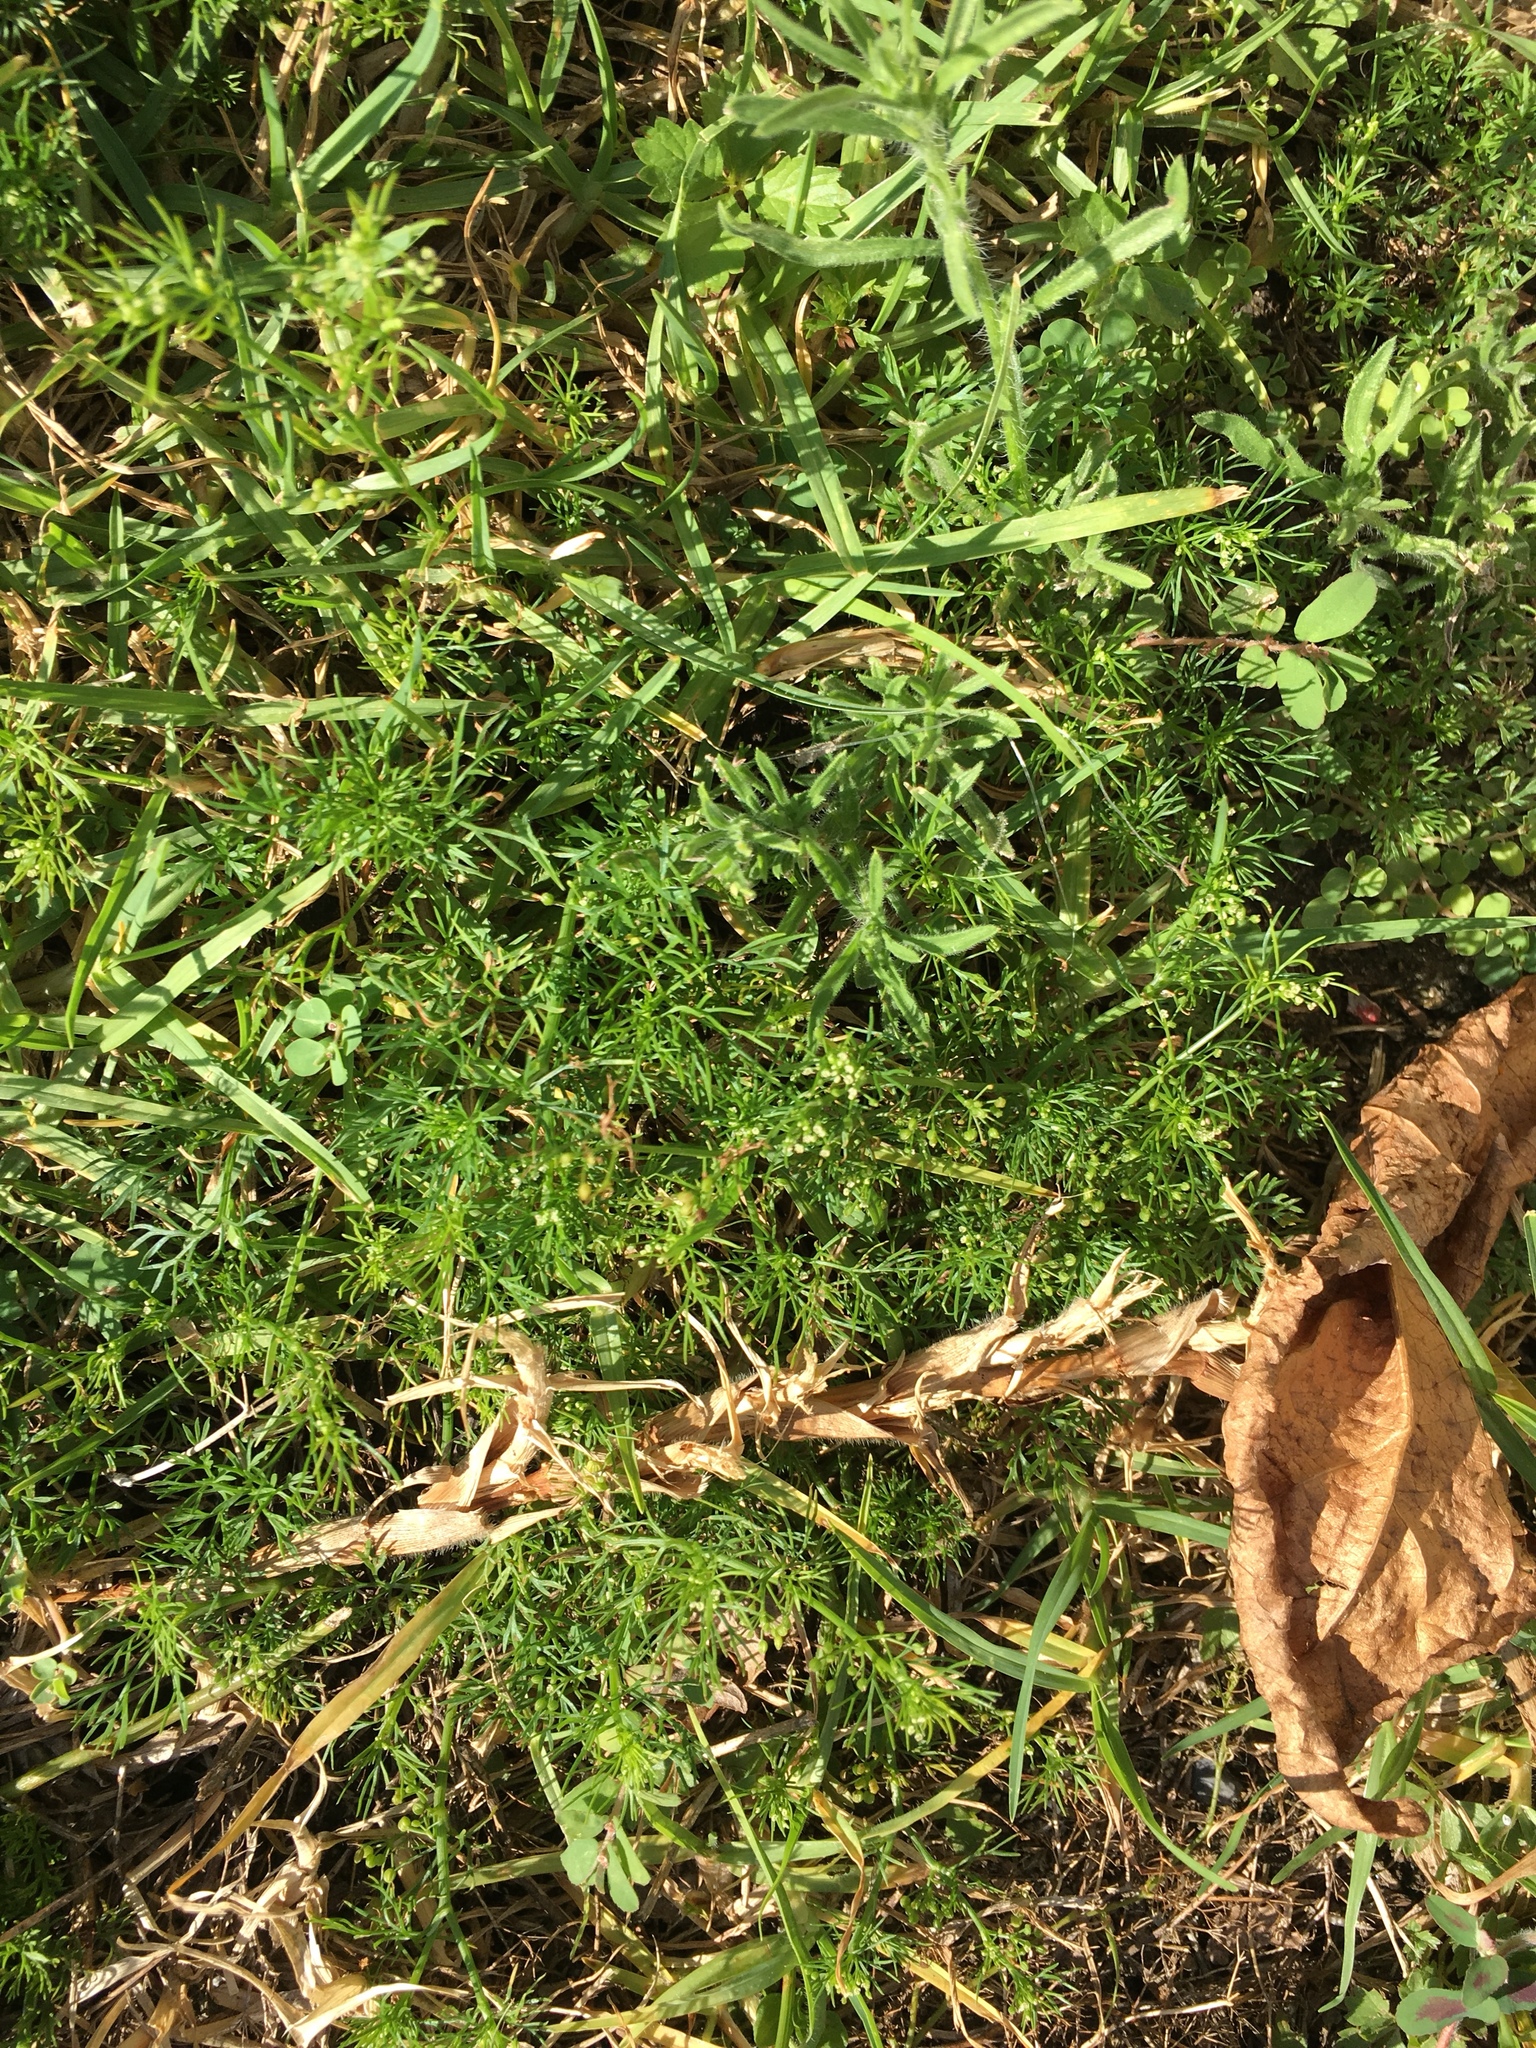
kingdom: Plantae
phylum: Tracheophyta
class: Magnoliopsida
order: Apiales
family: Apiaceae
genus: Cyclospermum
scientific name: Cyclospermum leptophyllum
